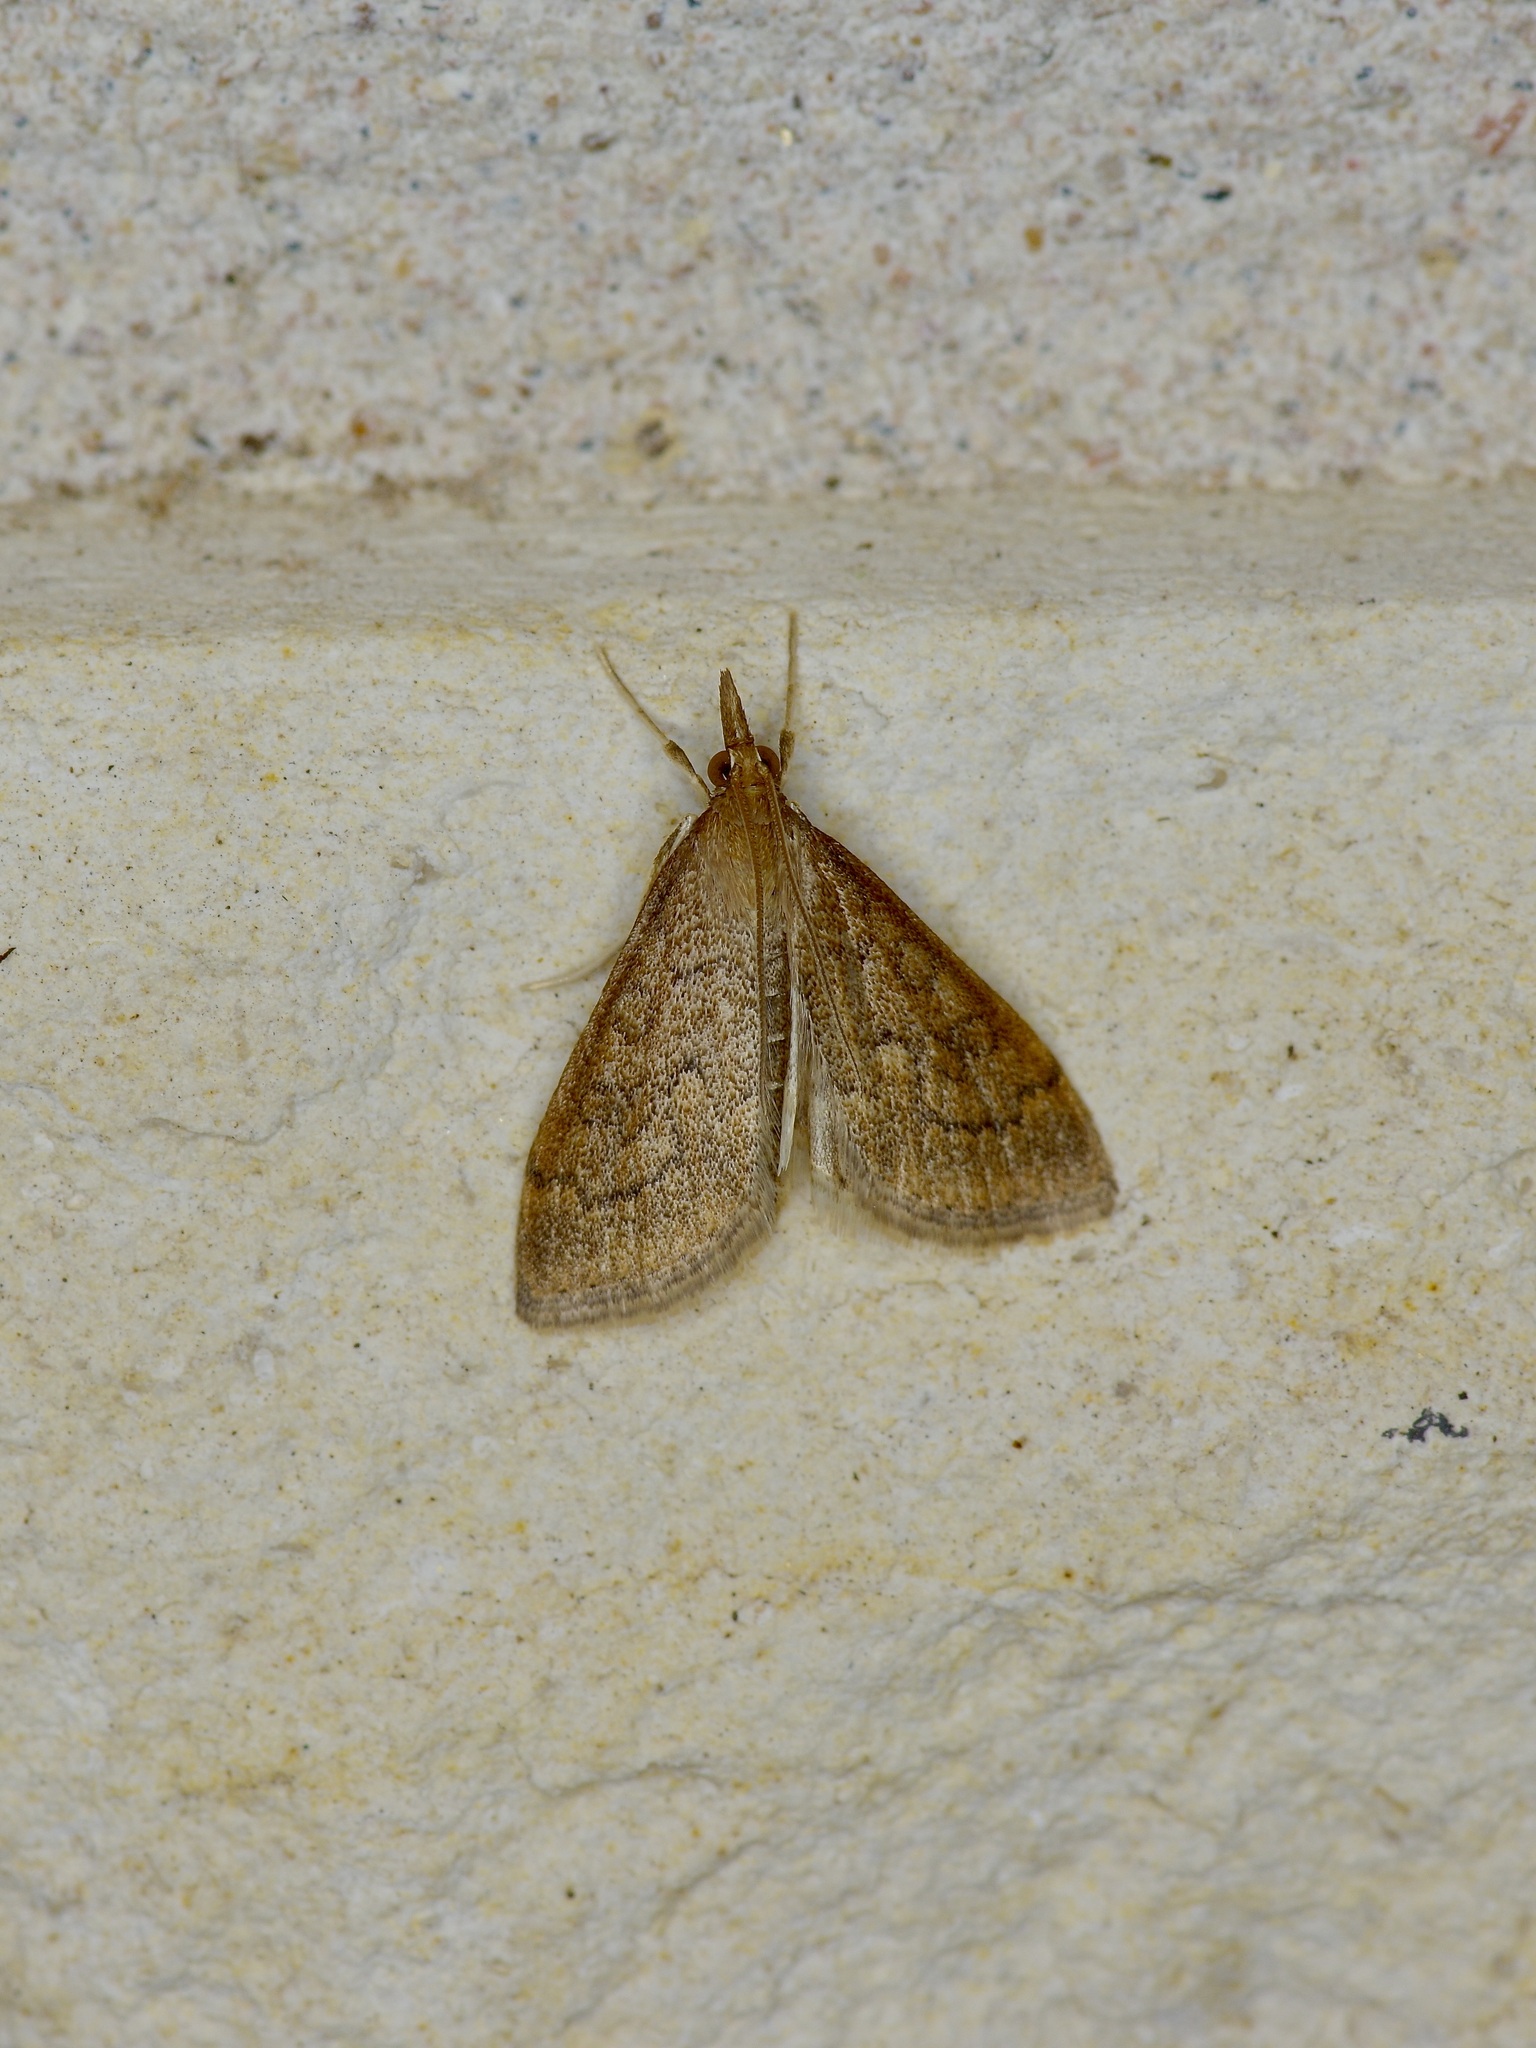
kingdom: Animalia
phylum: Arthropoda
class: Insecta
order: Lepidoptera
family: Crambidae
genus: Udea
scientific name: Udea rubigalis
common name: Celery leaftier moth
